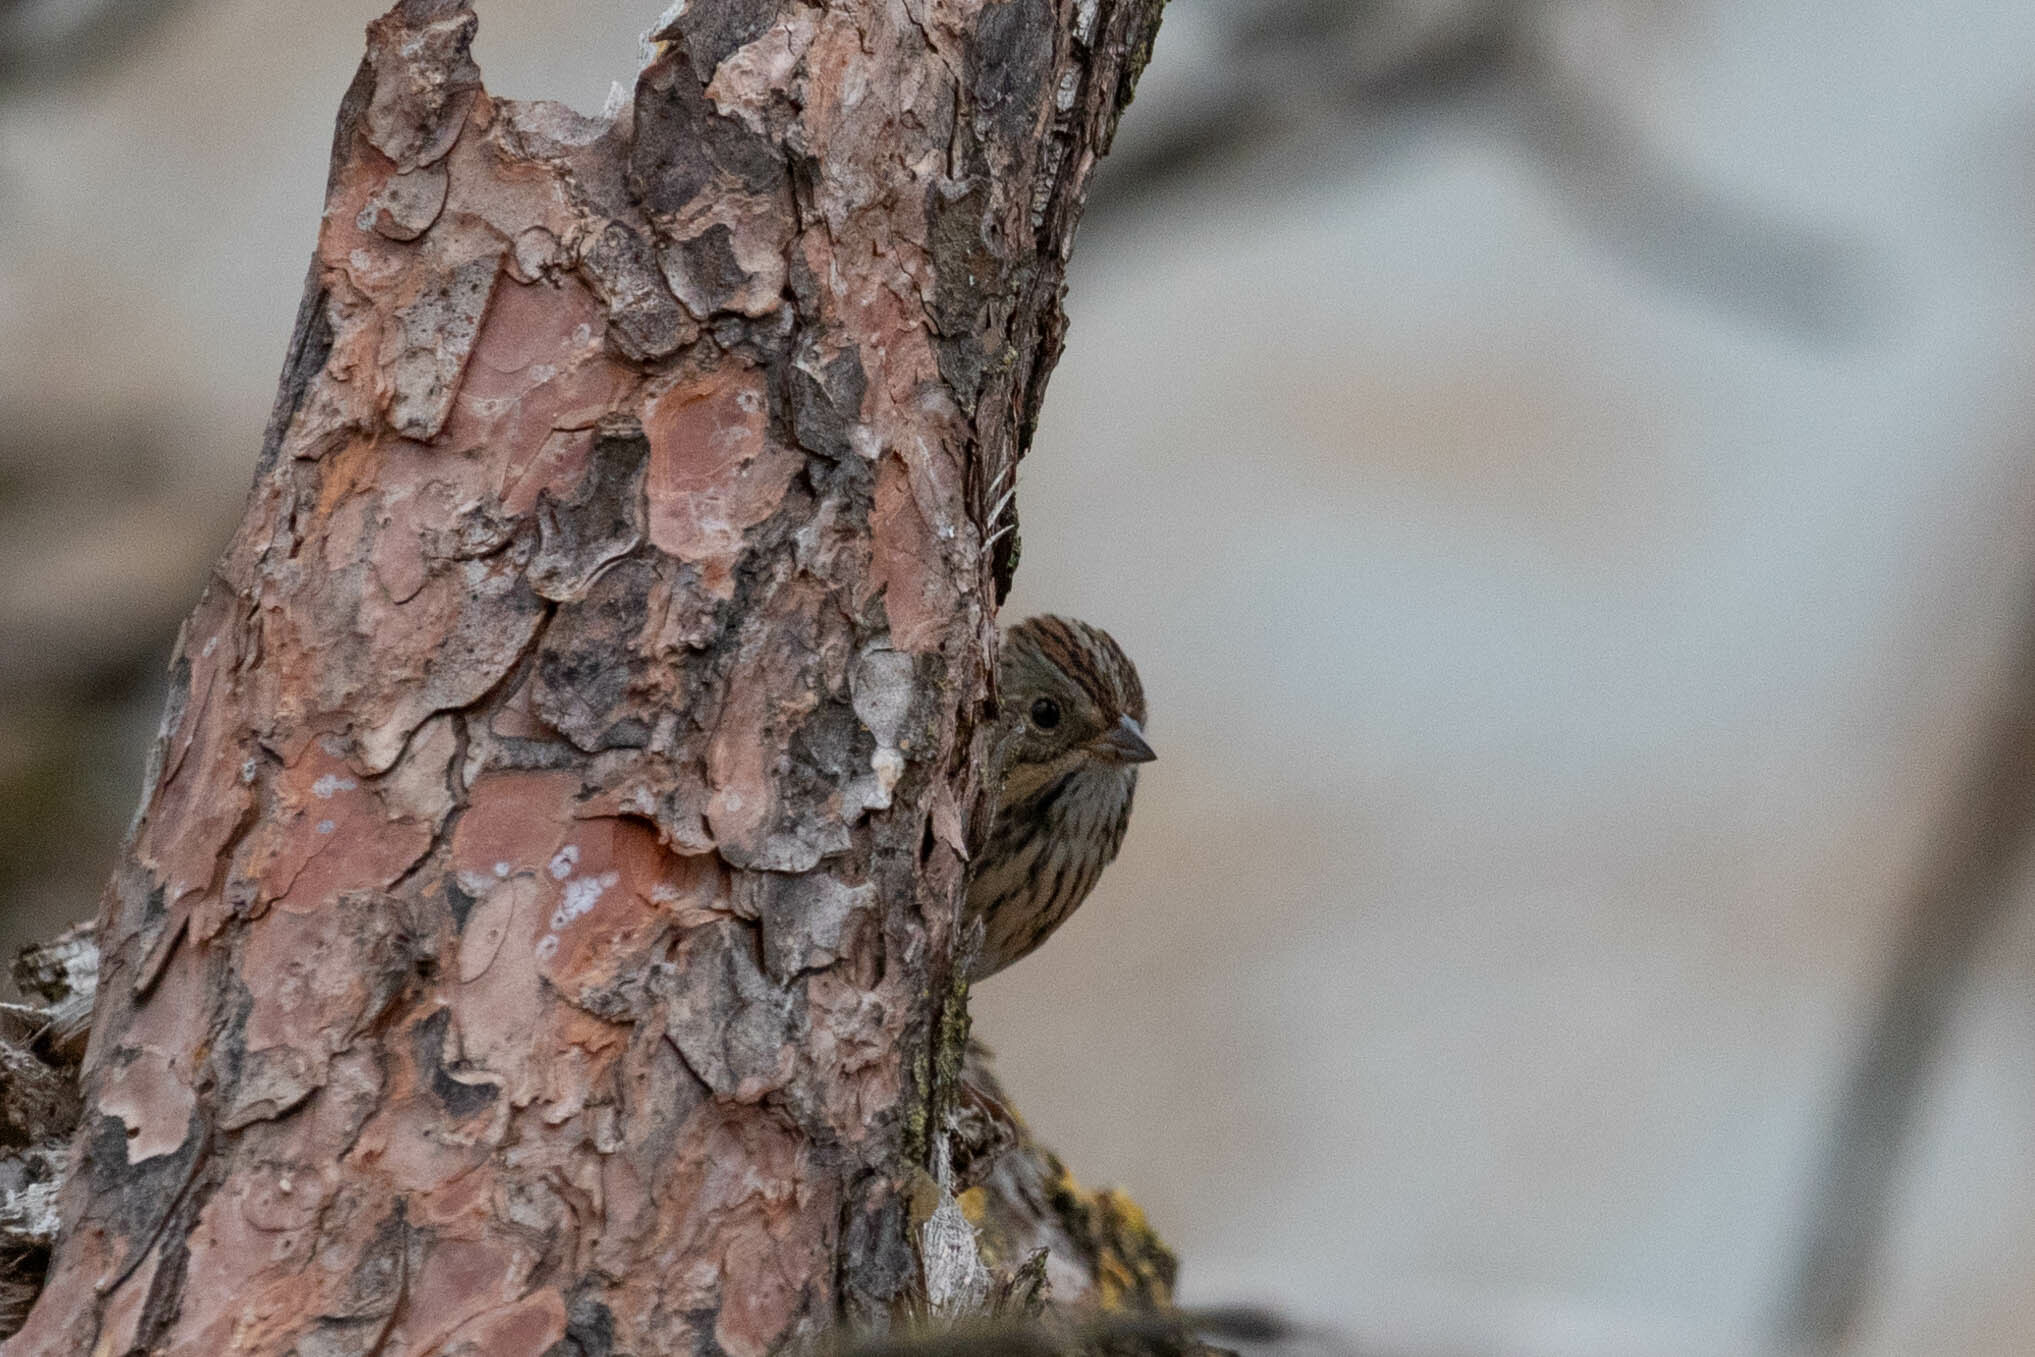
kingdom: Animalia
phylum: Chordata
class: Aves
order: Passeriformes
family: Passerellidae
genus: Melospiza
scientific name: Melospiza lincolnii
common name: Lincoln's sparrow
